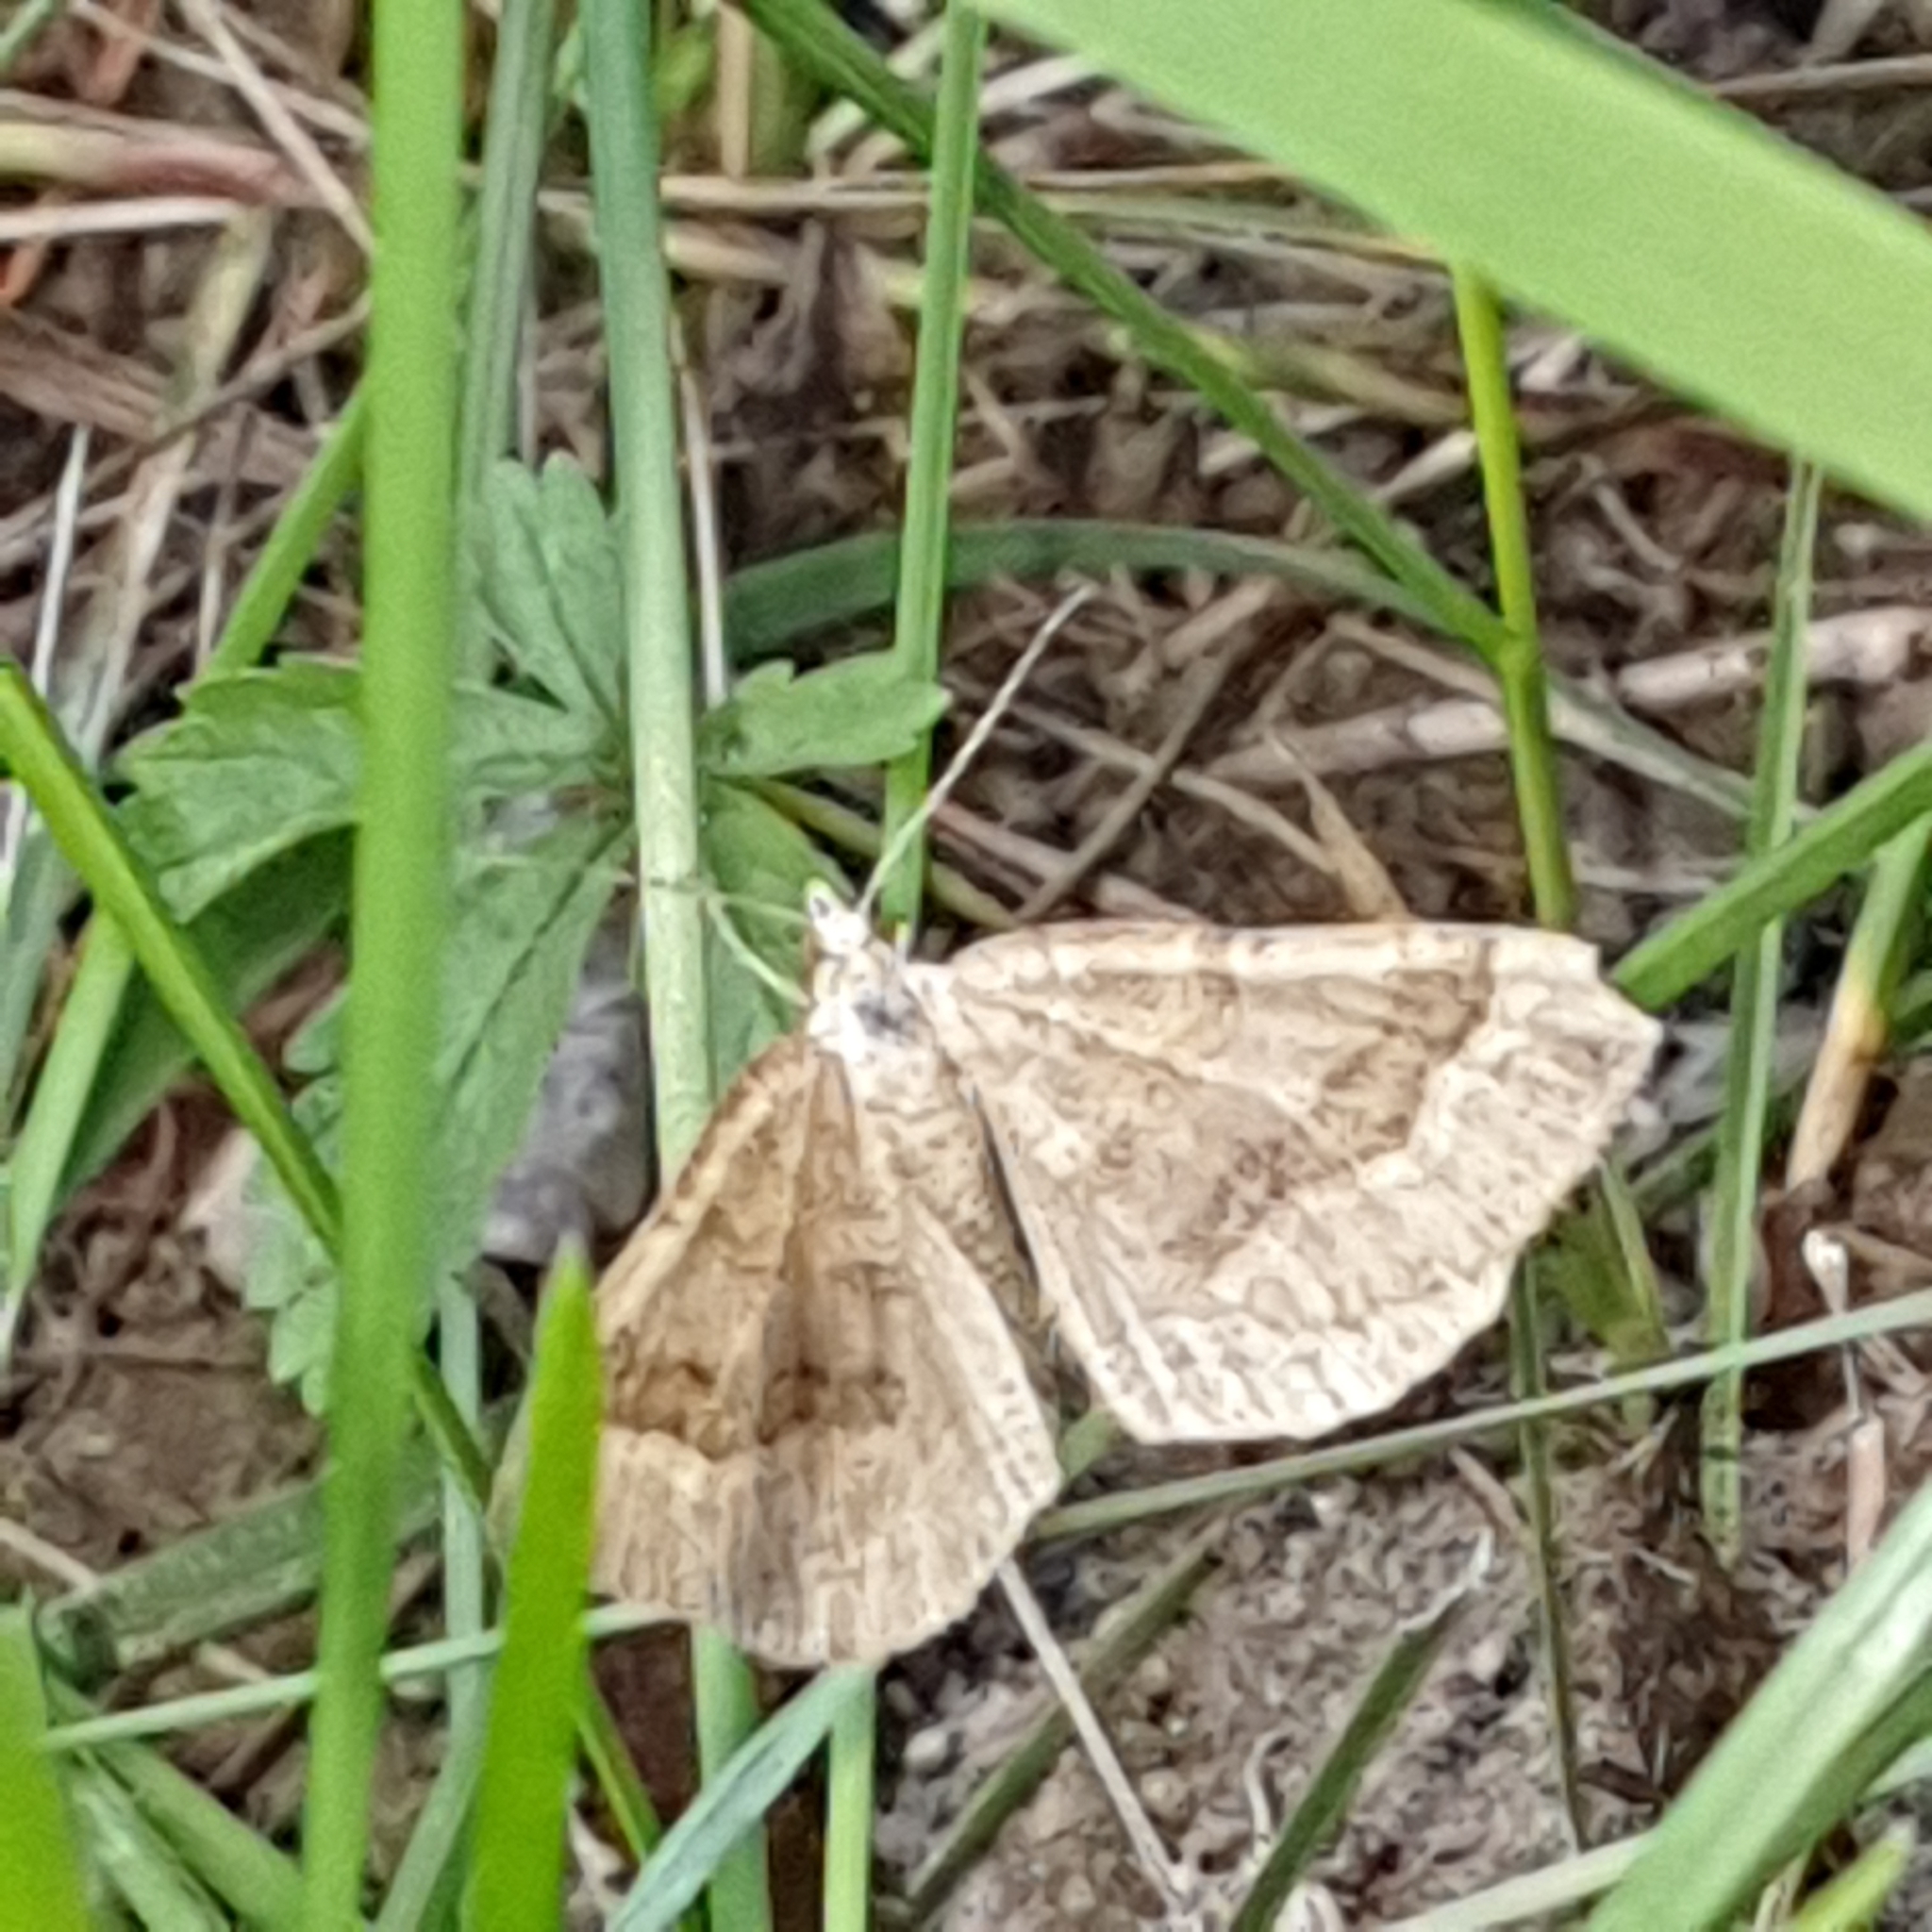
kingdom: Animalia
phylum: Arthropoda
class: Insecta
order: Lepidoptera
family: Geometridae
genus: Scotopteryx
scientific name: Scotopteryx chenopodiata
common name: Shaded broad-bar
